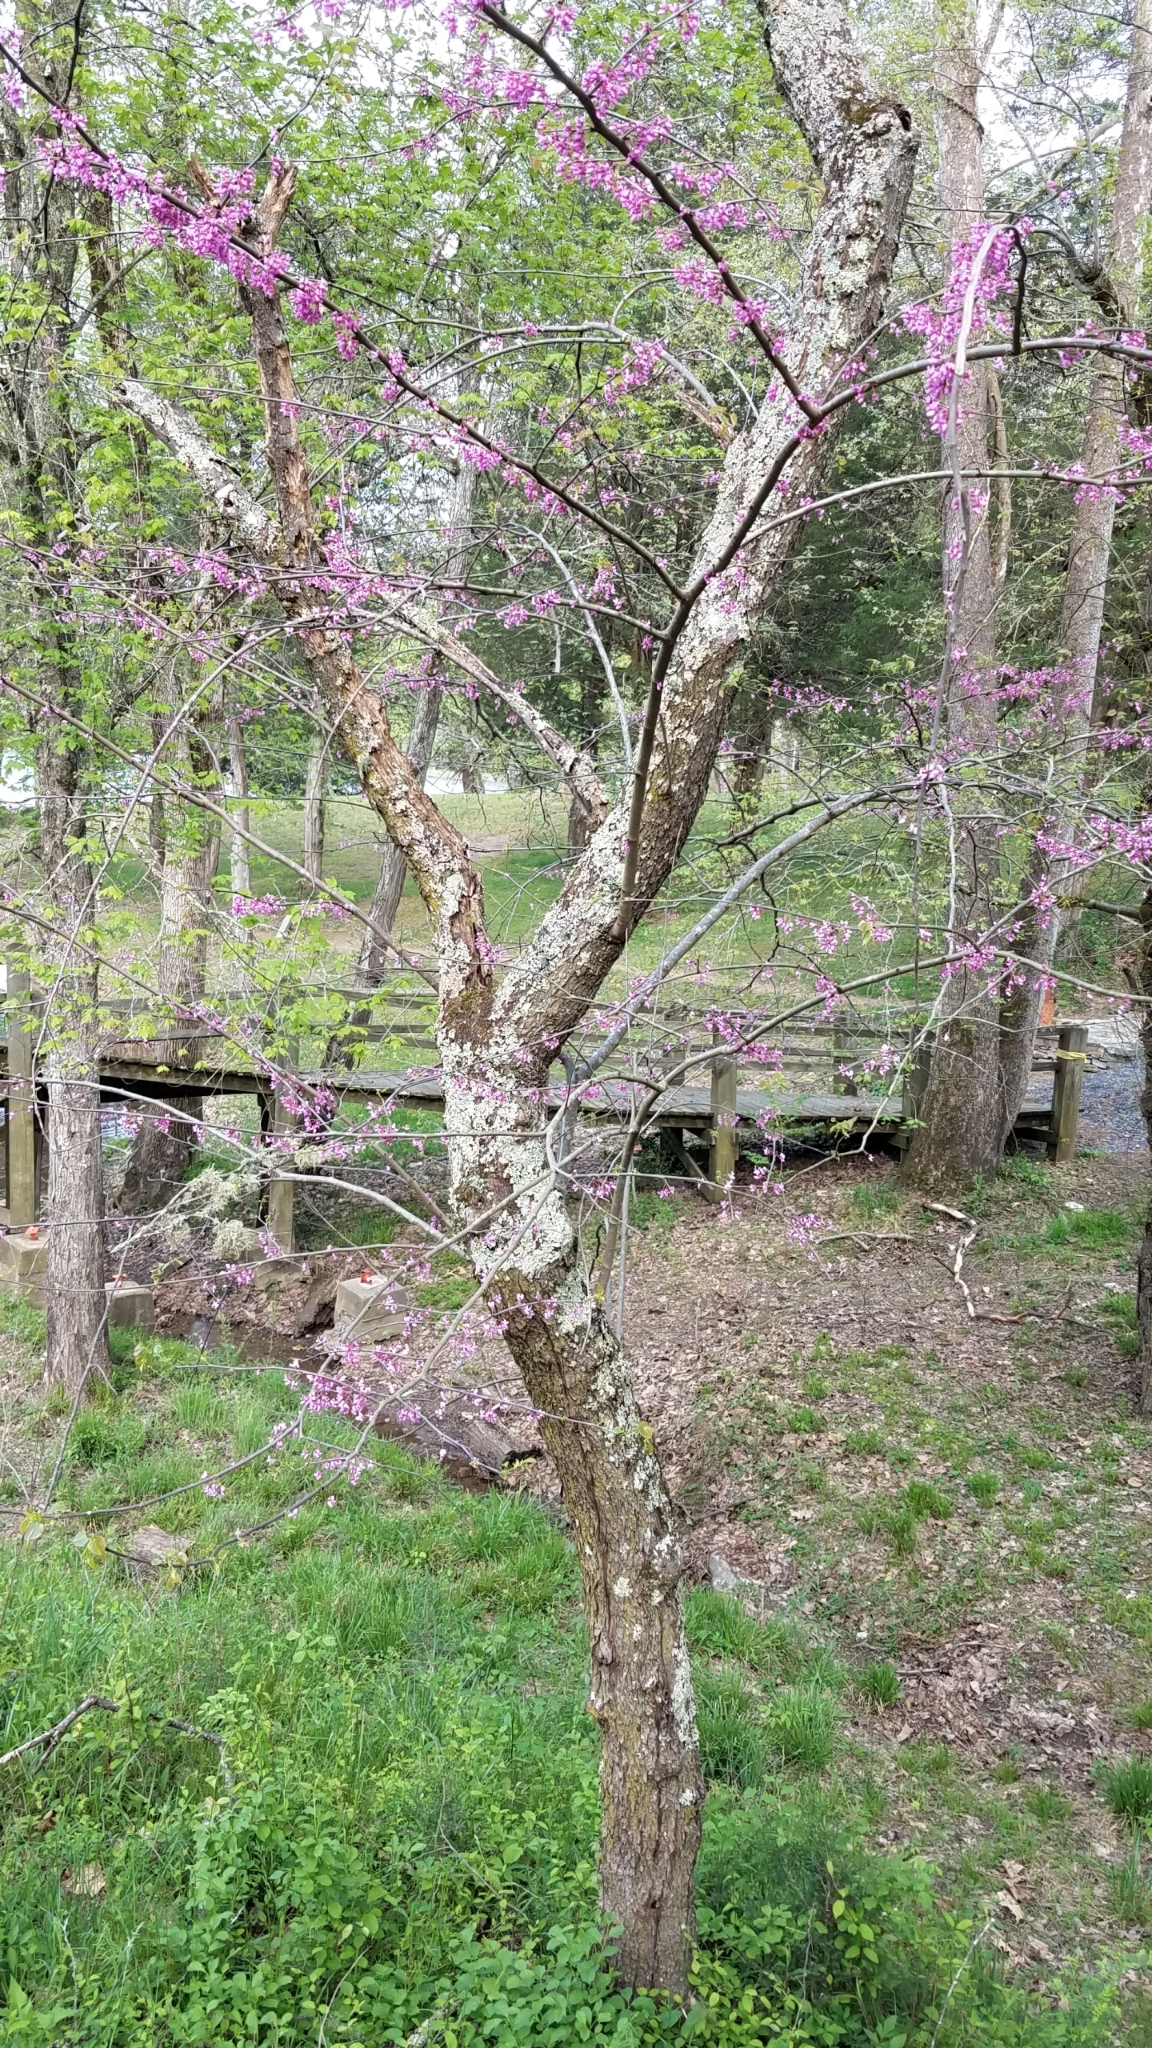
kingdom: Plantae
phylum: Tracheophyta
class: Magnoliopsida
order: Fabales
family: Fabaceae
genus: Cercis
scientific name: Cercis canadensis
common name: Eastern redbud
